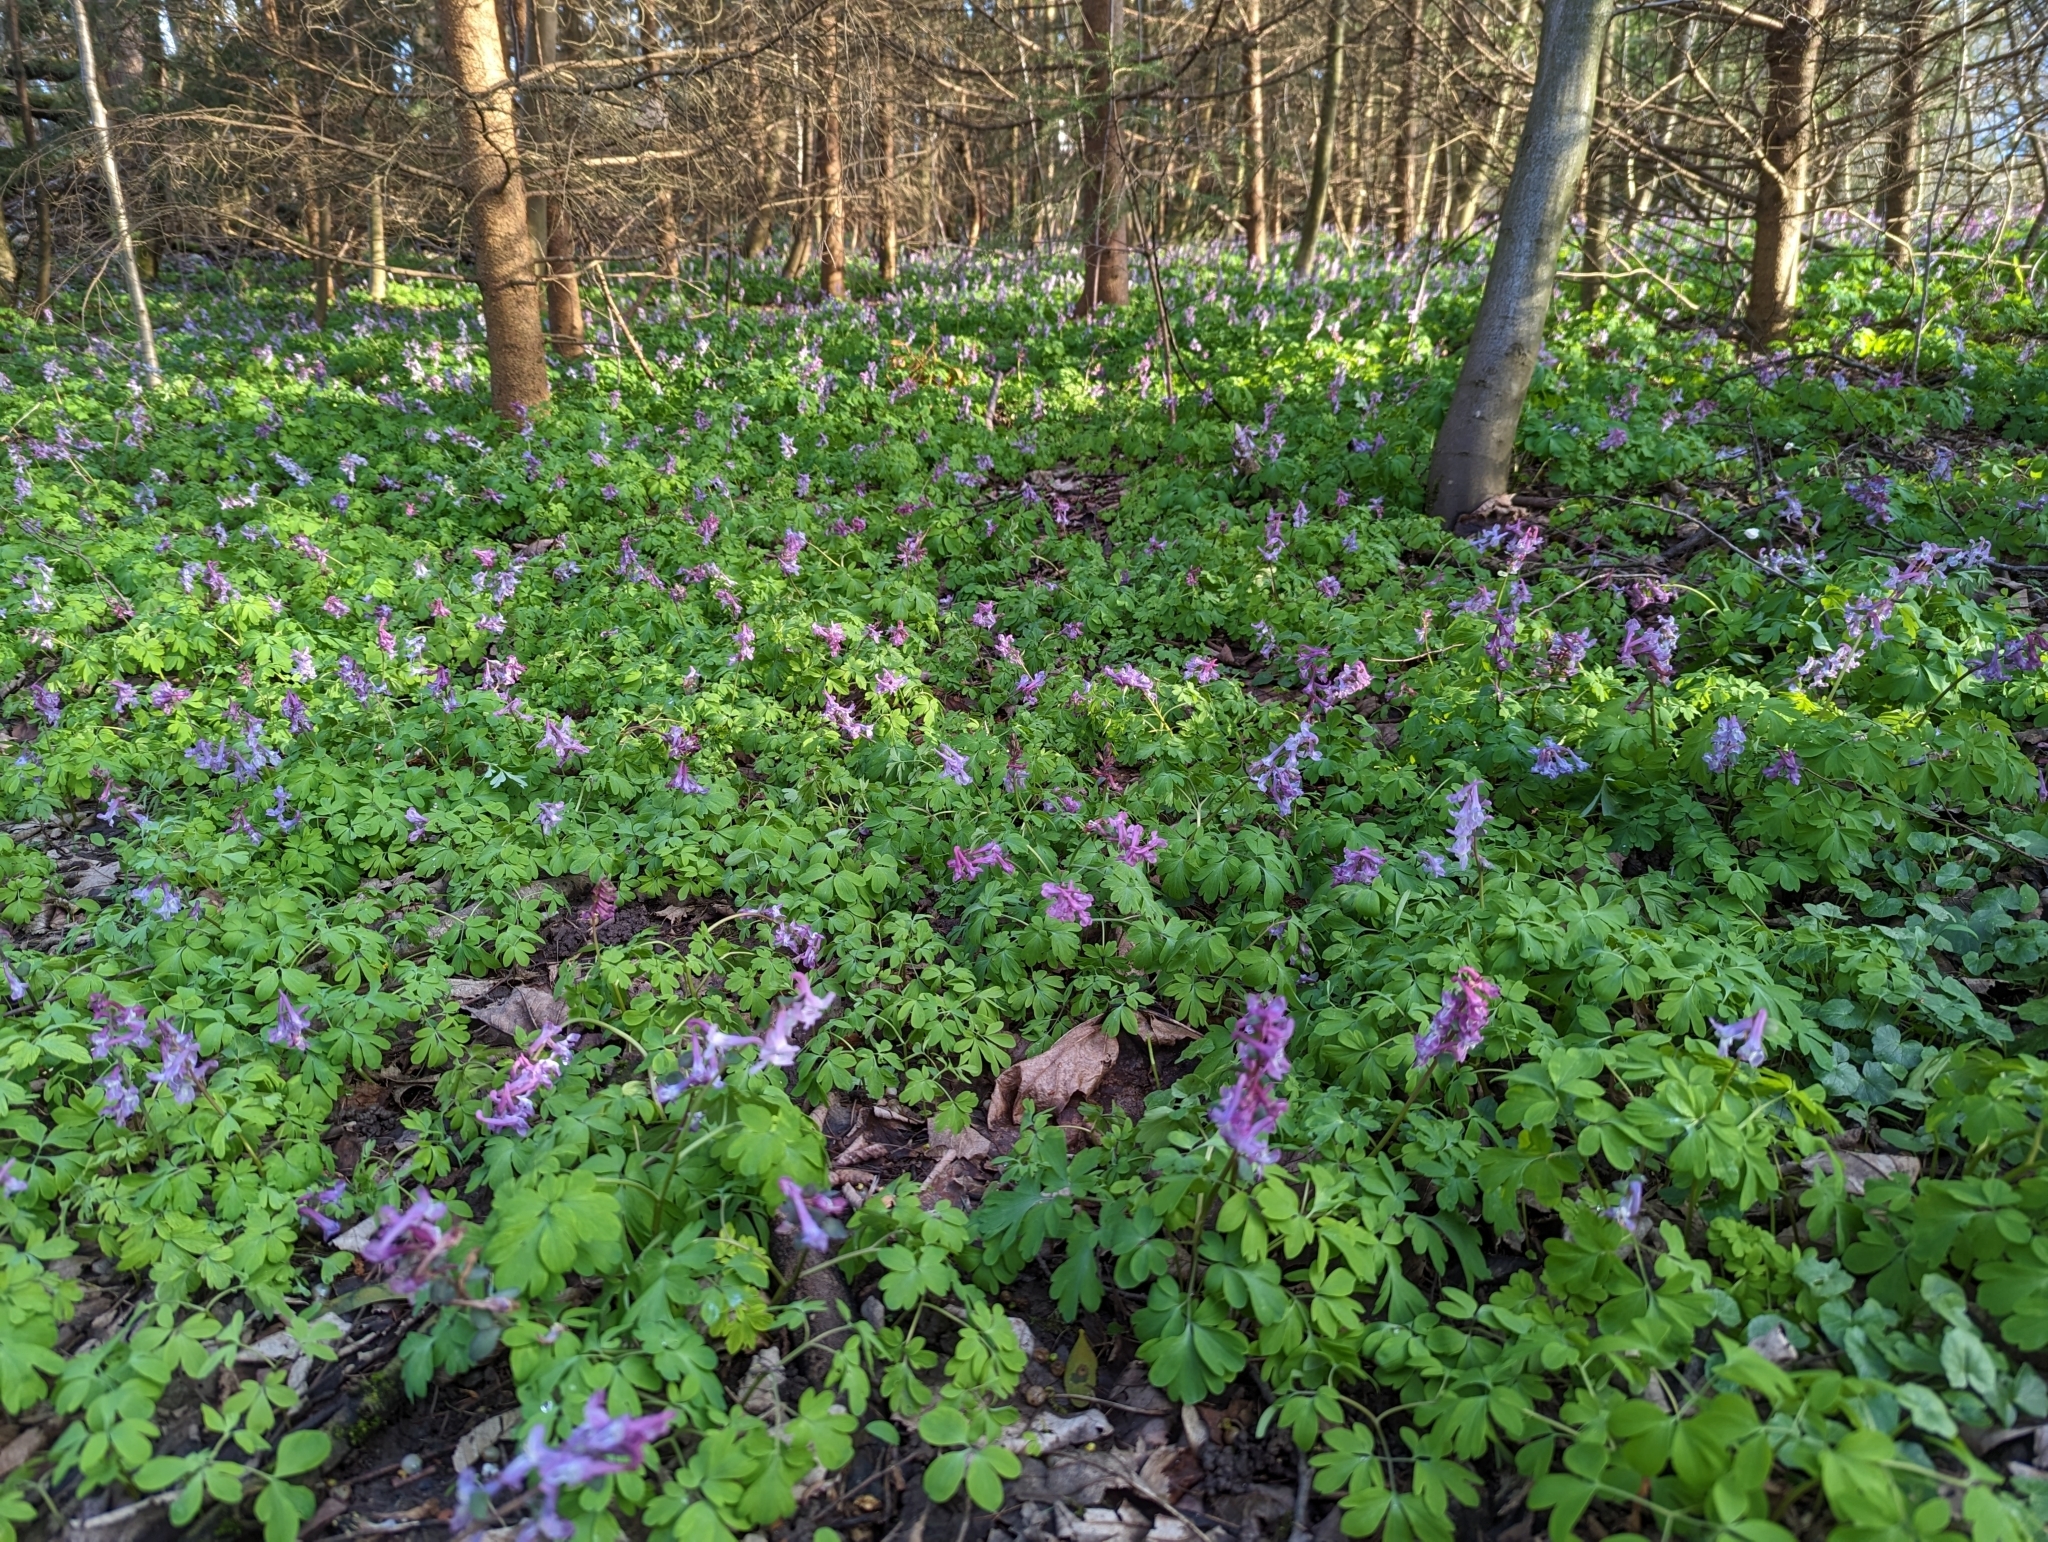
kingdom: Plantae
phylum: Tracheophyta
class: Magnoliopsida
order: Ranunculales
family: Papaveraceae
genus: Corydalis
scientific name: Corydalis cava
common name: Hollowroot
